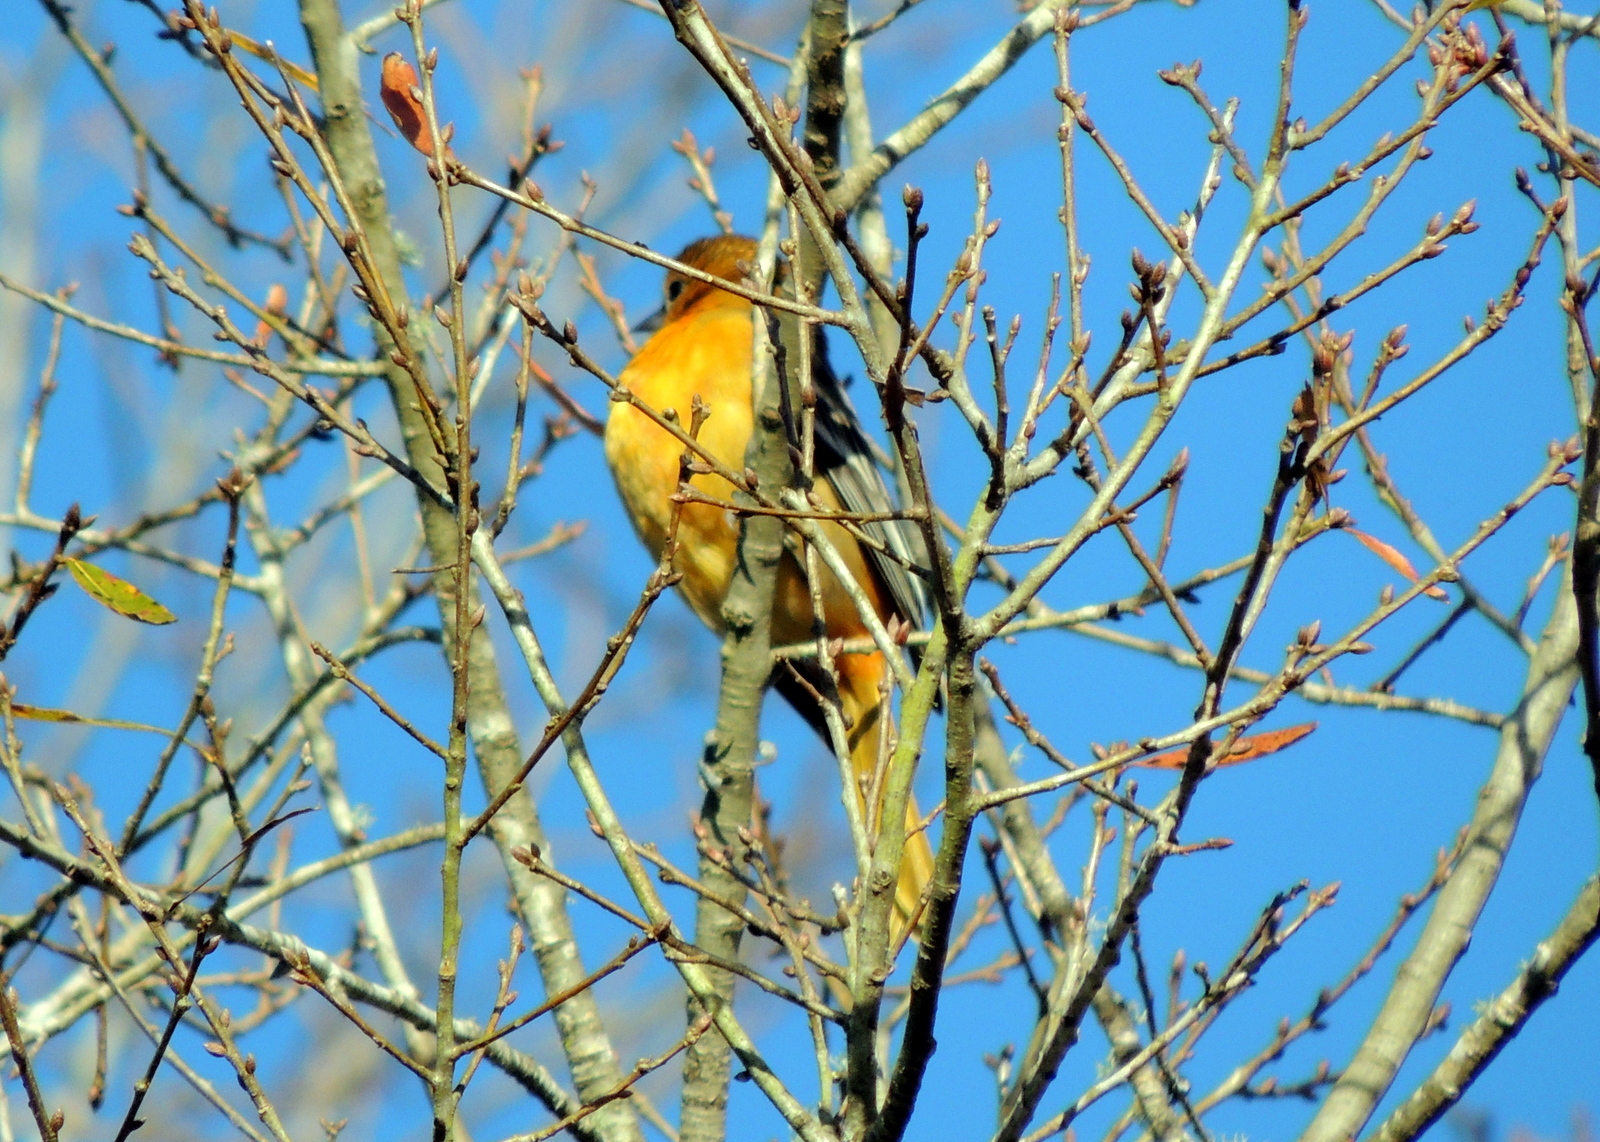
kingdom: Animalia
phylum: Chordata
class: Aves
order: Passeriformes
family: Icteridae
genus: Icterus
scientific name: Icterus galbula
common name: Baltimore oriole
